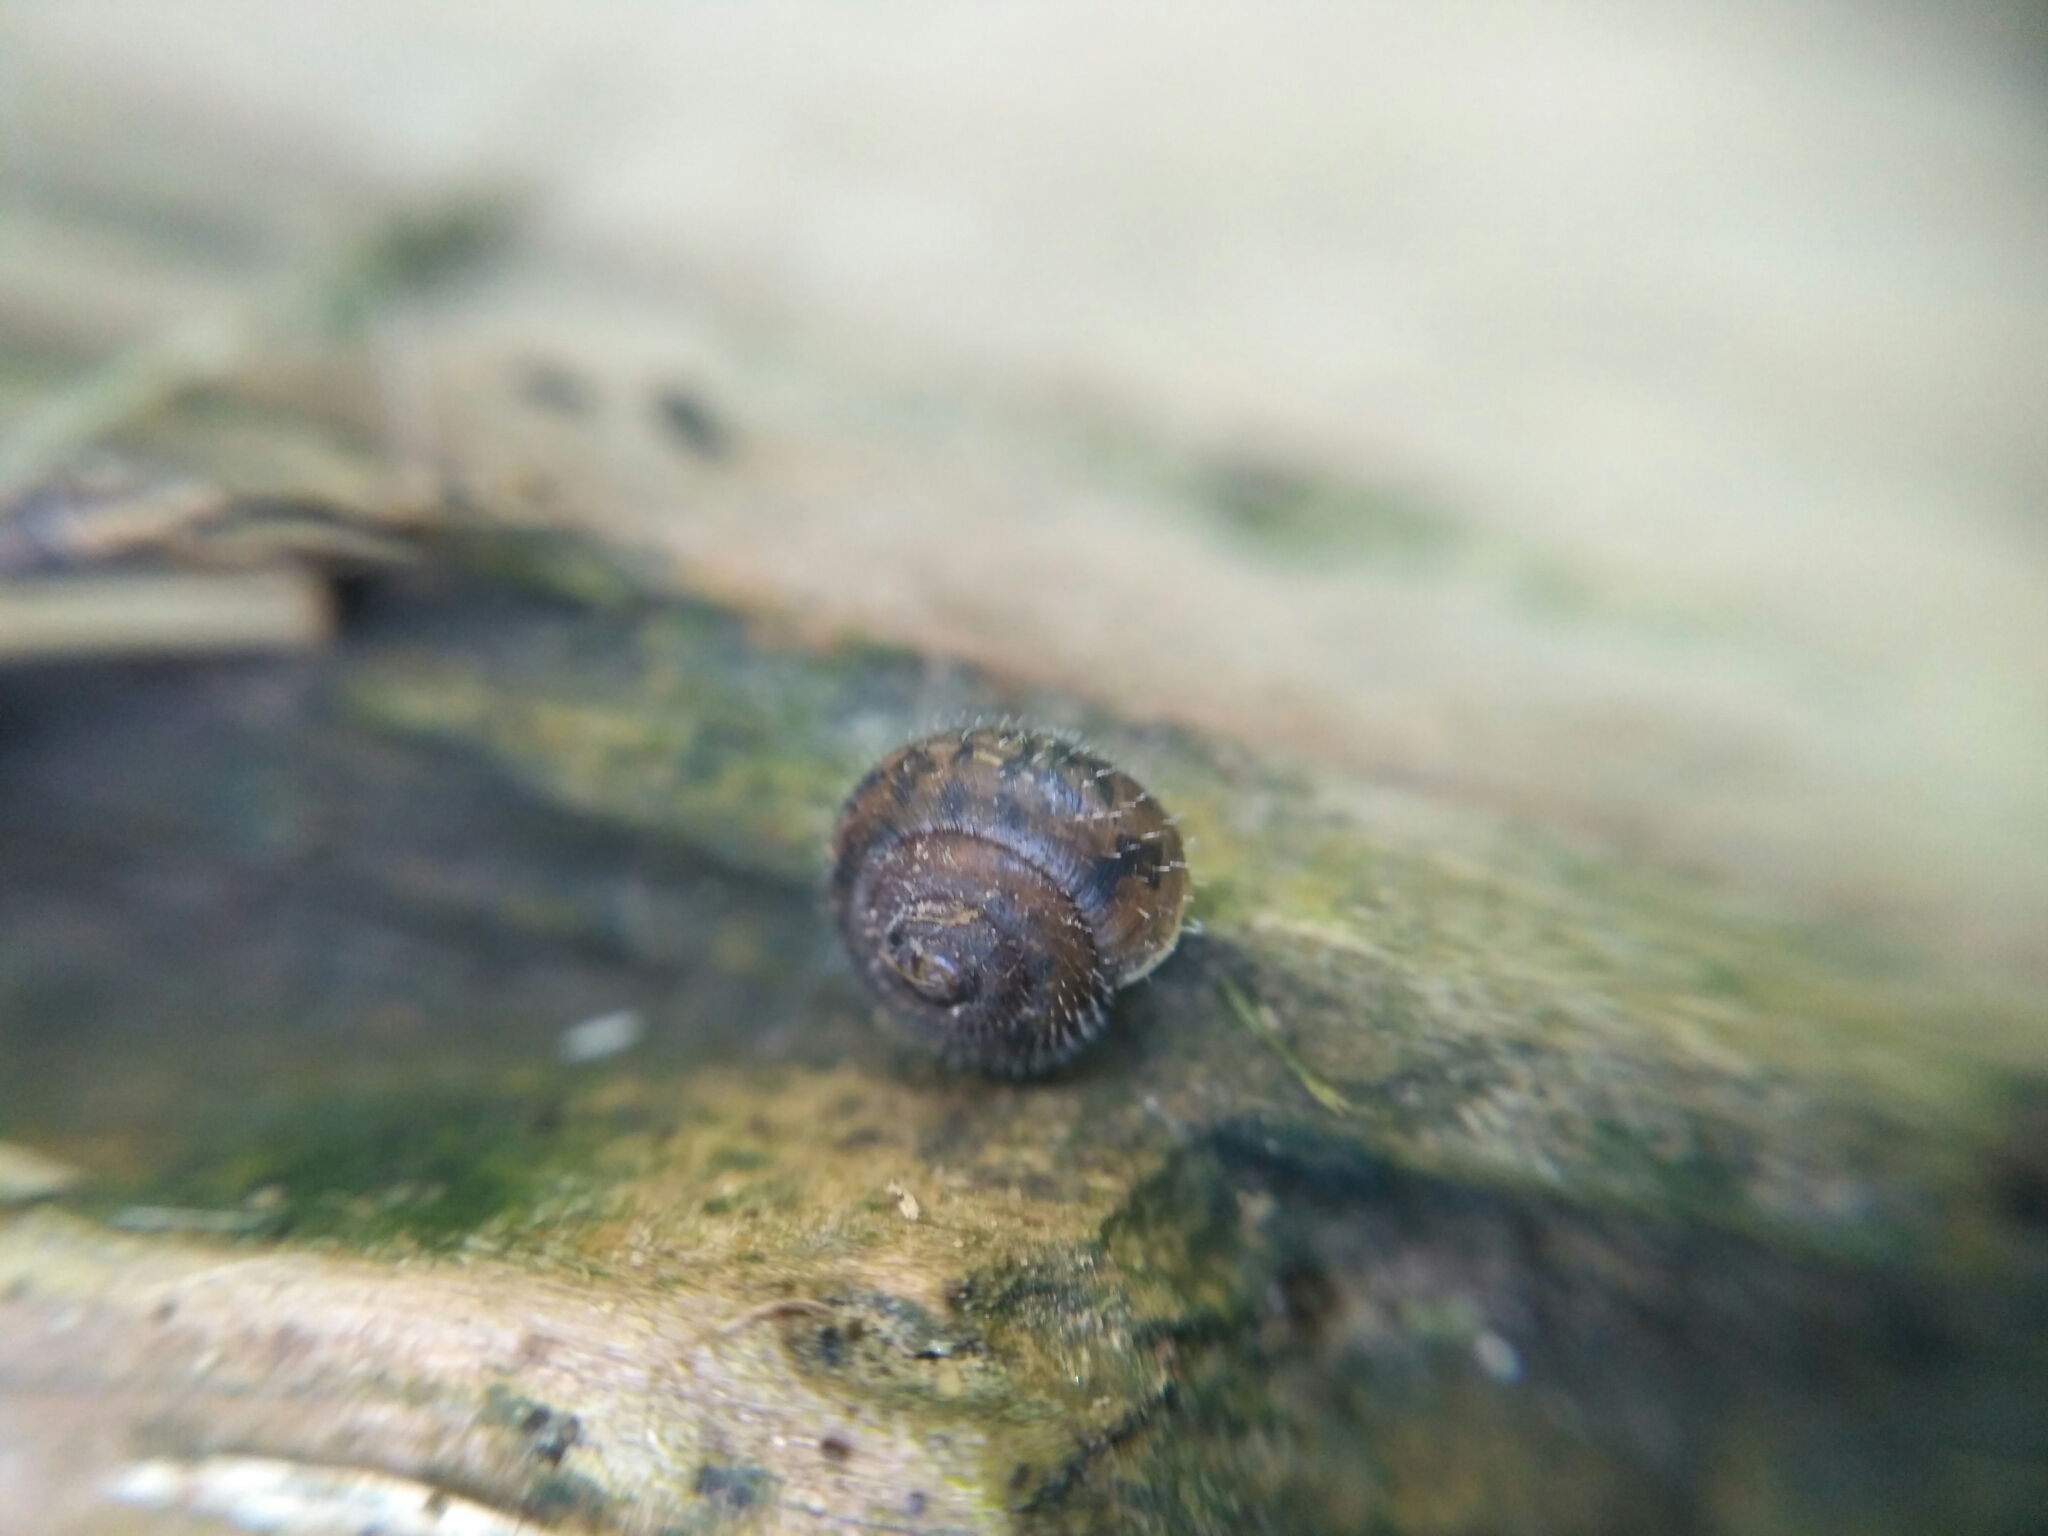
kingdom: Animalia
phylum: Mollusca
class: Gastropoda
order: Stylommatophora
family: Hygromiidae
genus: Pseudotrichia
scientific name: Pseudotrichia rubiginosa
